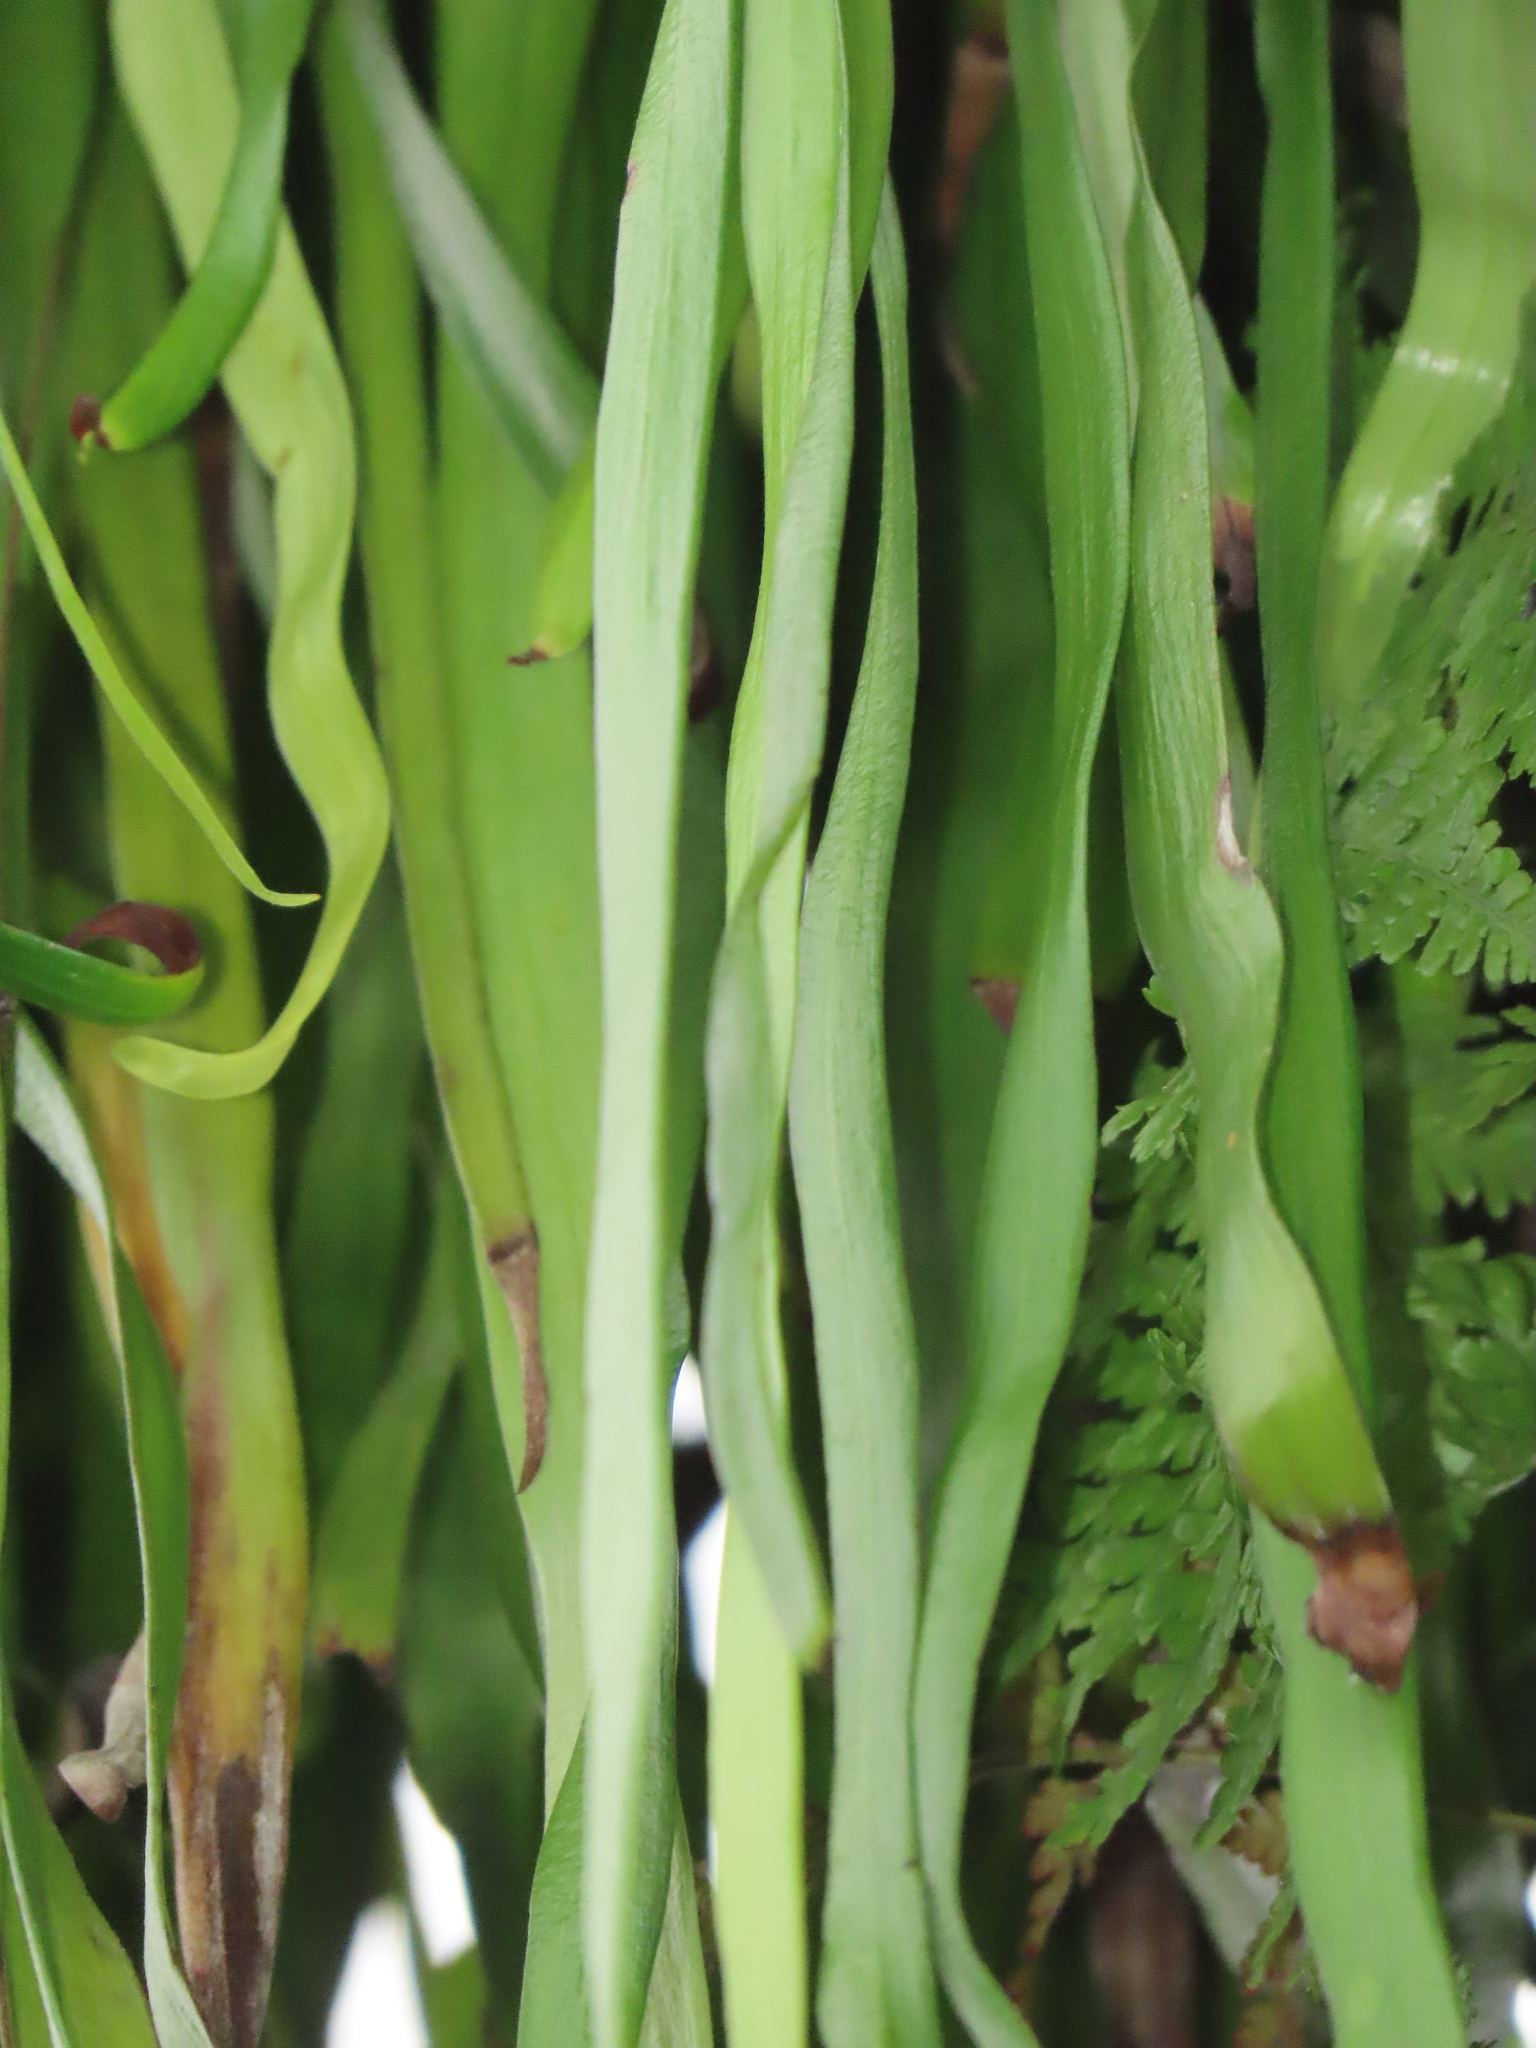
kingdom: Plantae
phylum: Tracheophyta
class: Polypodiopsida
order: Polypodiales
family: Pteridaceae
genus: Haplopteris
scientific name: Haplopteris elongata
